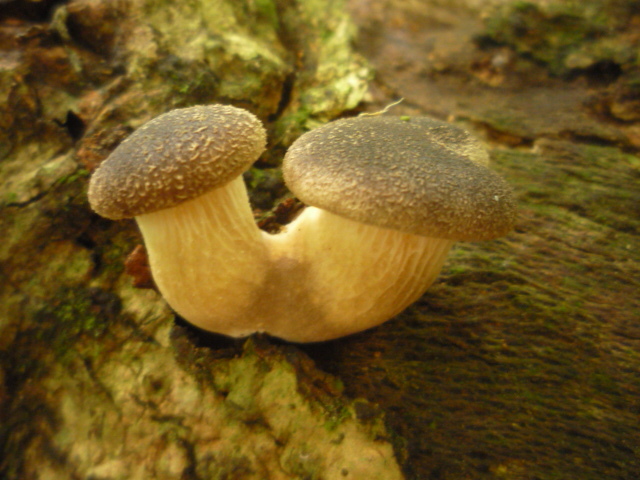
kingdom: Fungi
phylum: Basidiomycota
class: Agaricomycetes
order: Agaricales
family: Pleurotaceae
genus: Pleurotus
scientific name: Pleurotus australis
